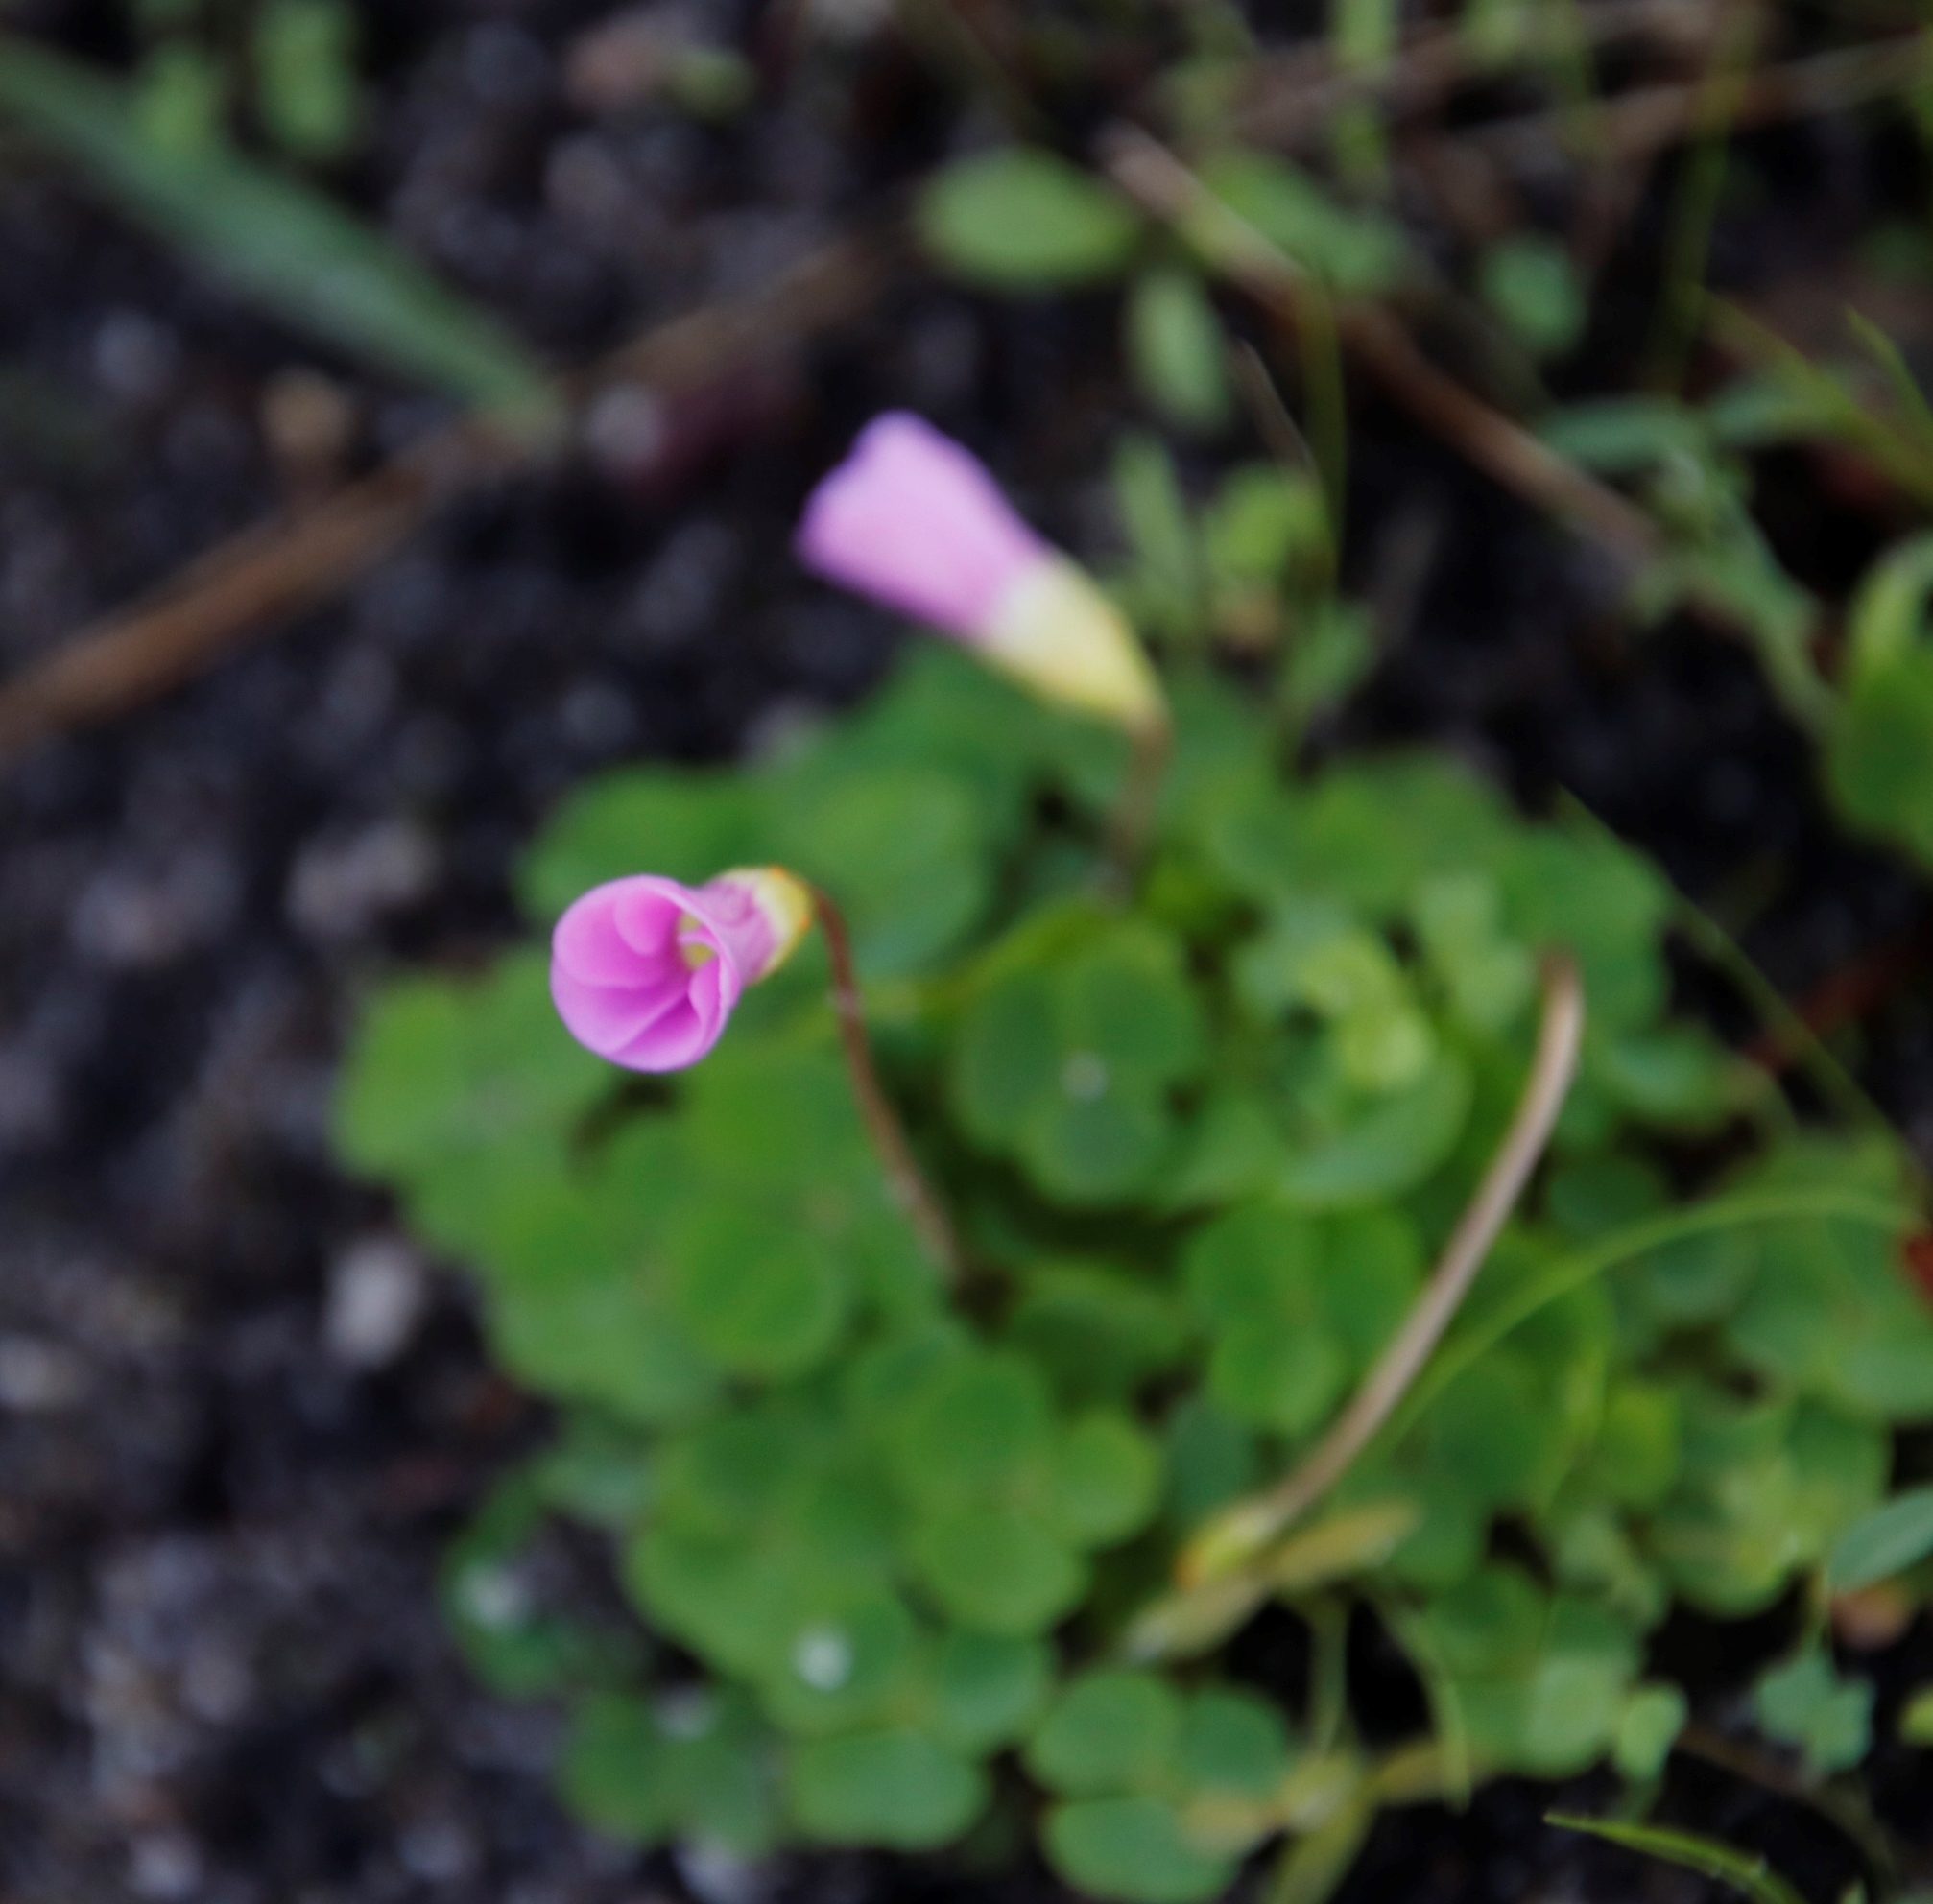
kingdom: Plantae
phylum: Tracheophyta
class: Magnoliopsida
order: Oxalidales
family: Oxalidaceae
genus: Oxalis
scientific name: Oxalis commutata
